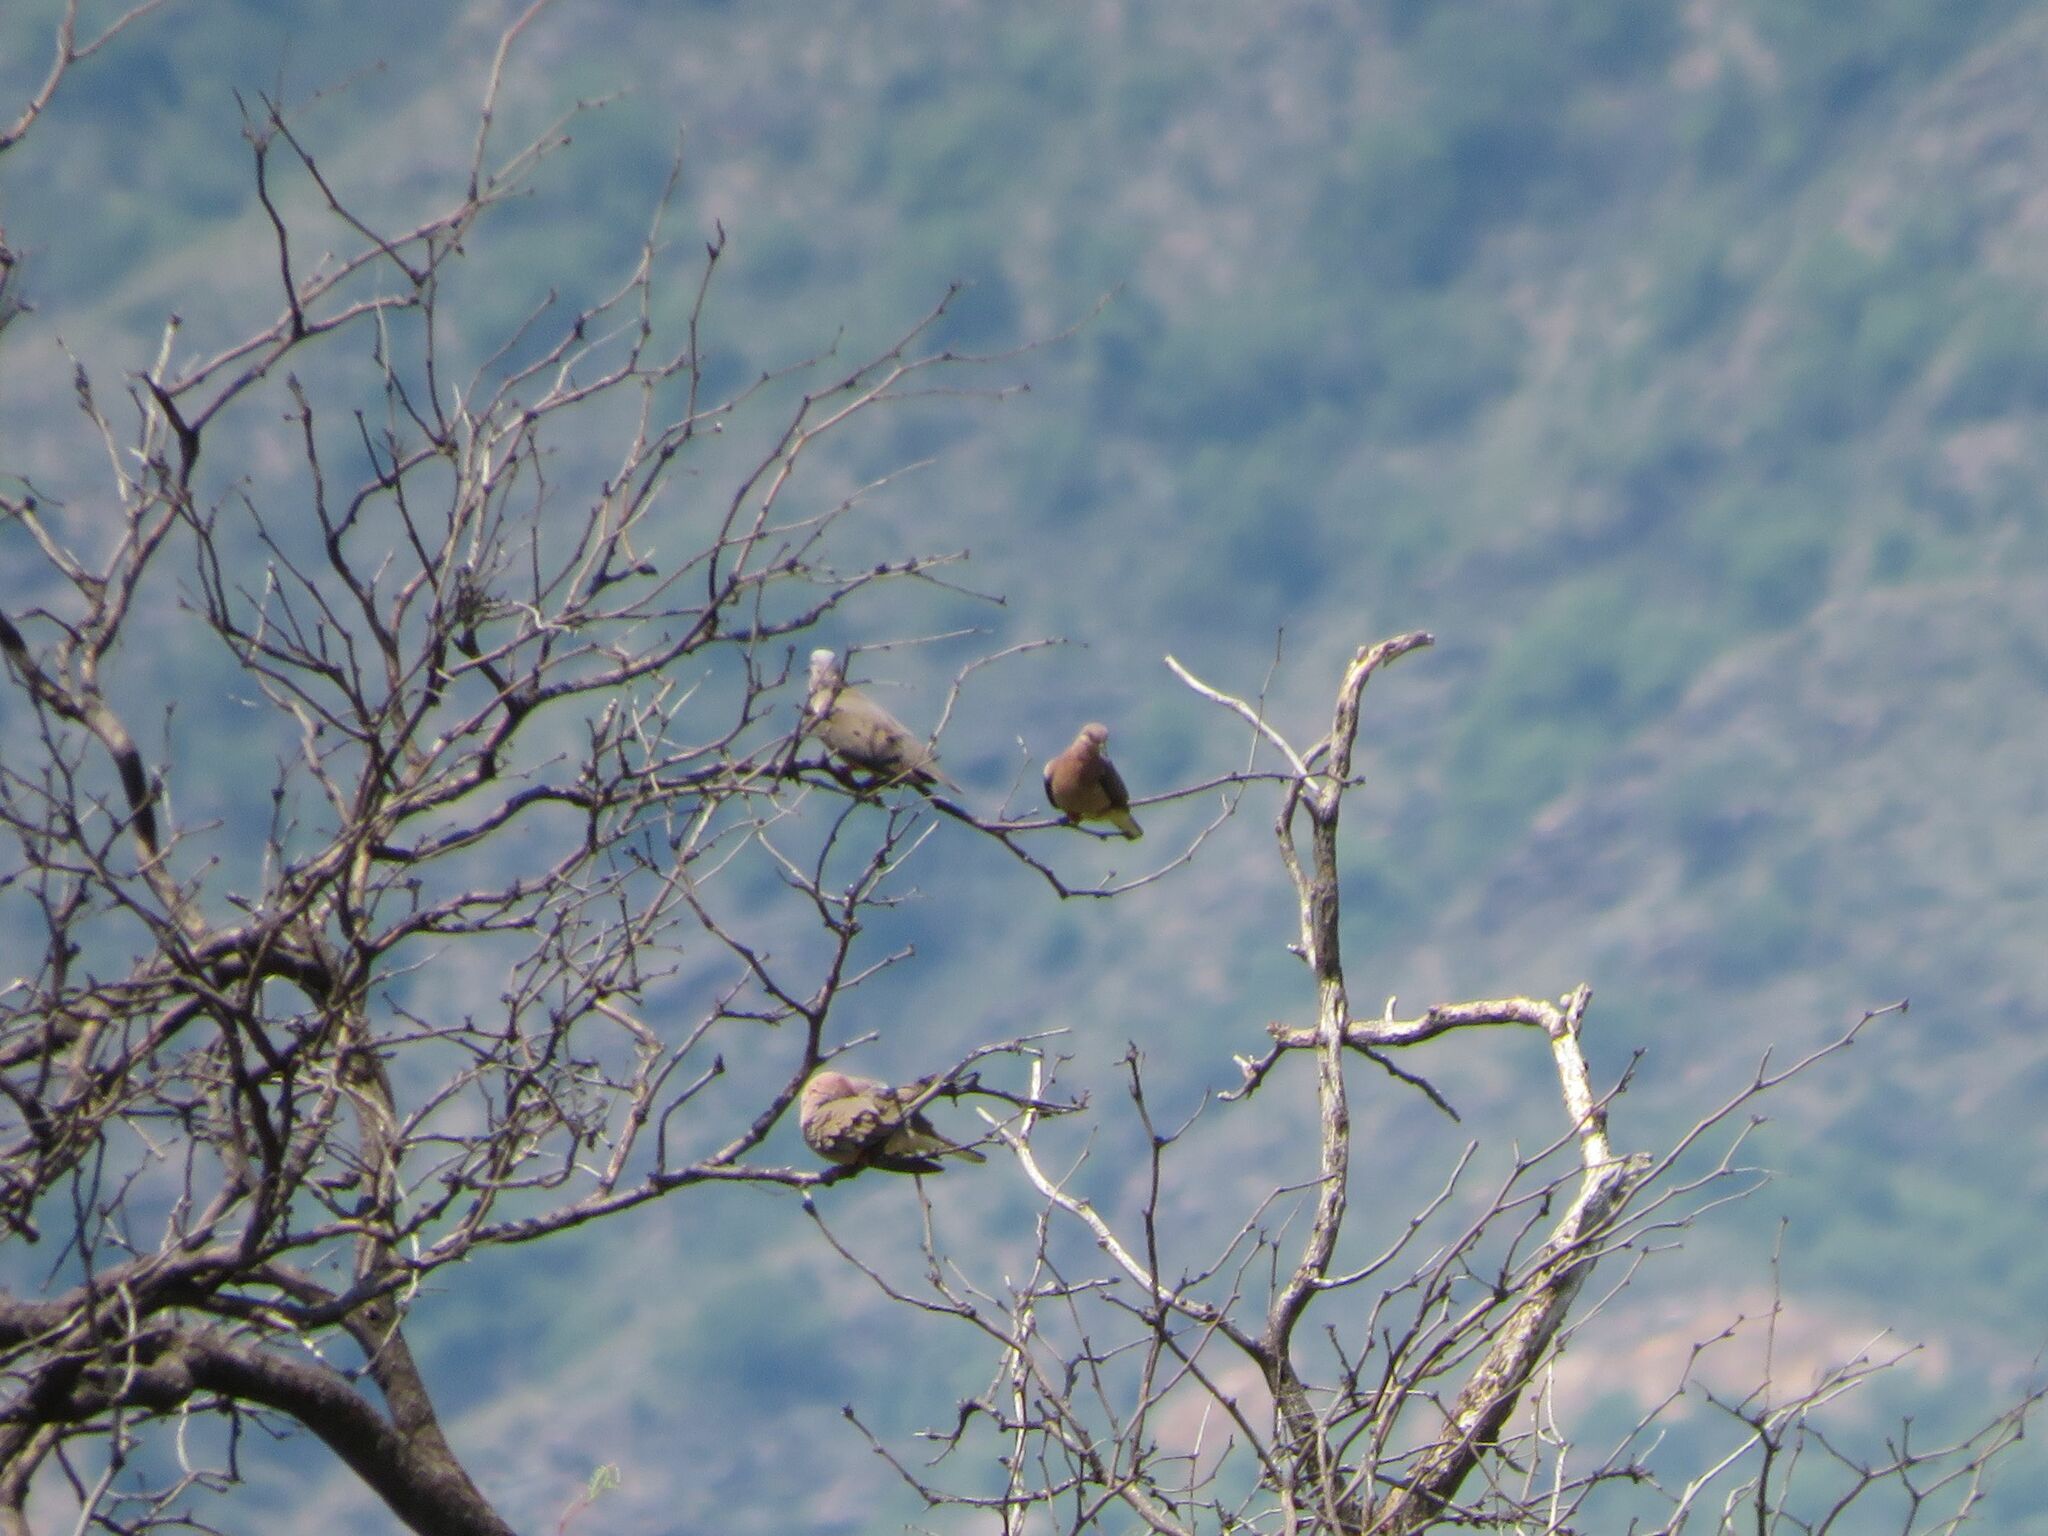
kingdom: Animalia
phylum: Chordata
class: Aves
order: Columbiformes
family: Columbidae
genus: Zenaida
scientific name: Zenaida auriculata
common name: Eared dove
